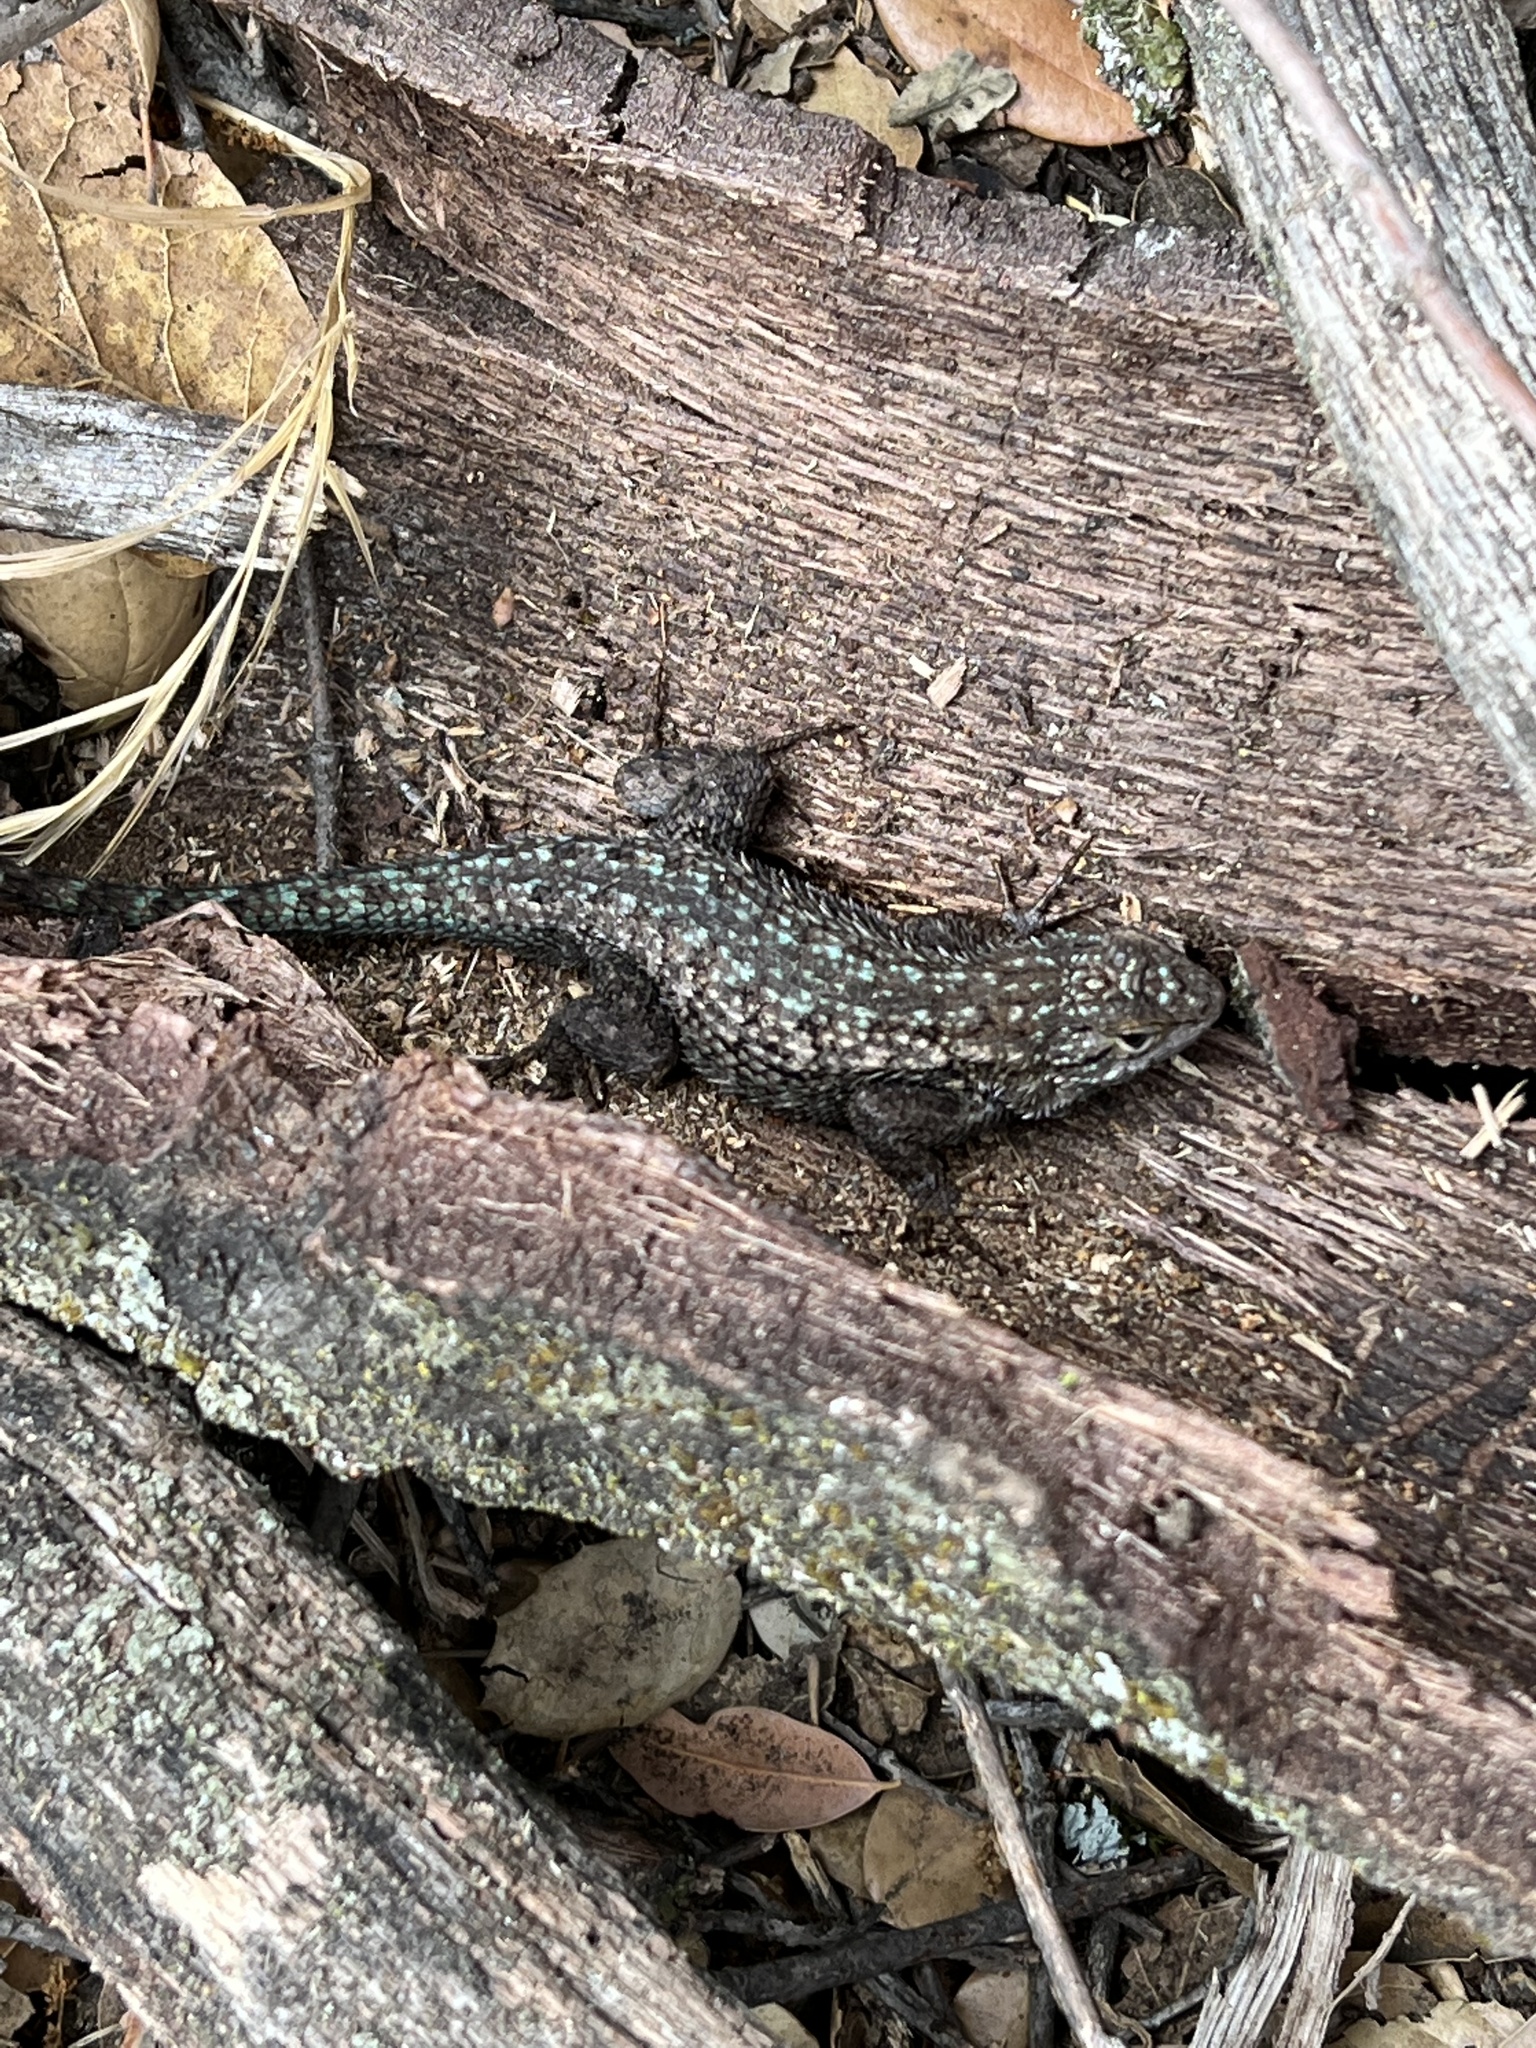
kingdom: Animalia
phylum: Chordata
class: Squamata
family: Phrynosomatidae
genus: Sceloporus
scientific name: Sceloporus occidentalis
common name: Western fence lizard
